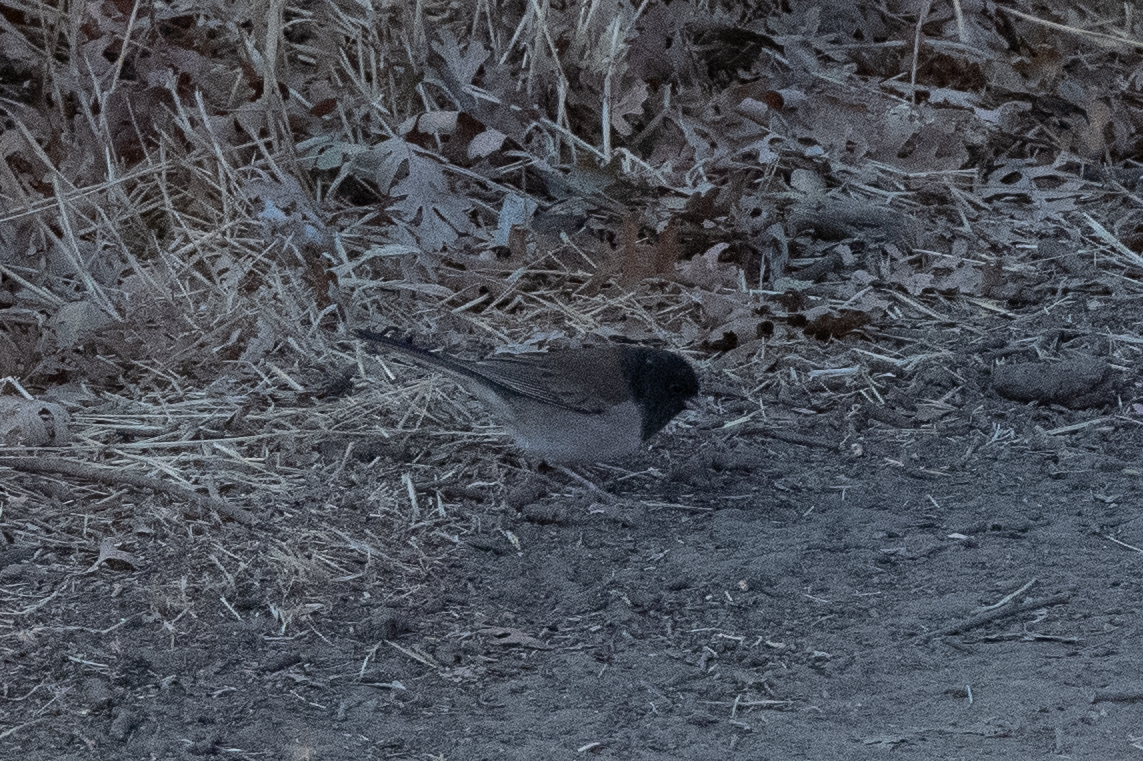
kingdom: Animalia
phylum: Chordata
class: Aves
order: Passeriformes
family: Passerellidae
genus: Junco
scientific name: Junco hyemalis
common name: Dark-eyed junco
